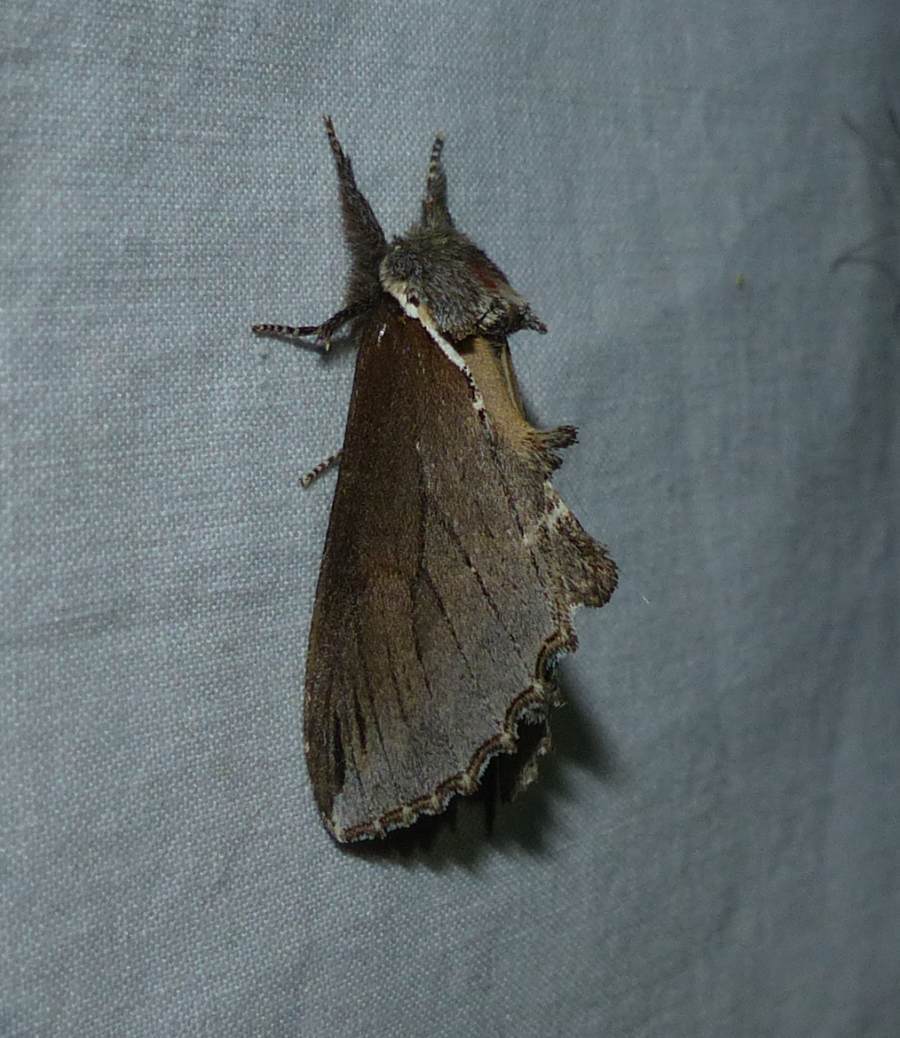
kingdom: Animalia
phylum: Arthropoda
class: Insecta
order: Lepidoptera
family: Notodontidae
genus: Pheosidea
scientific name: Pheosidea elegans
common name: Elegant prominent
